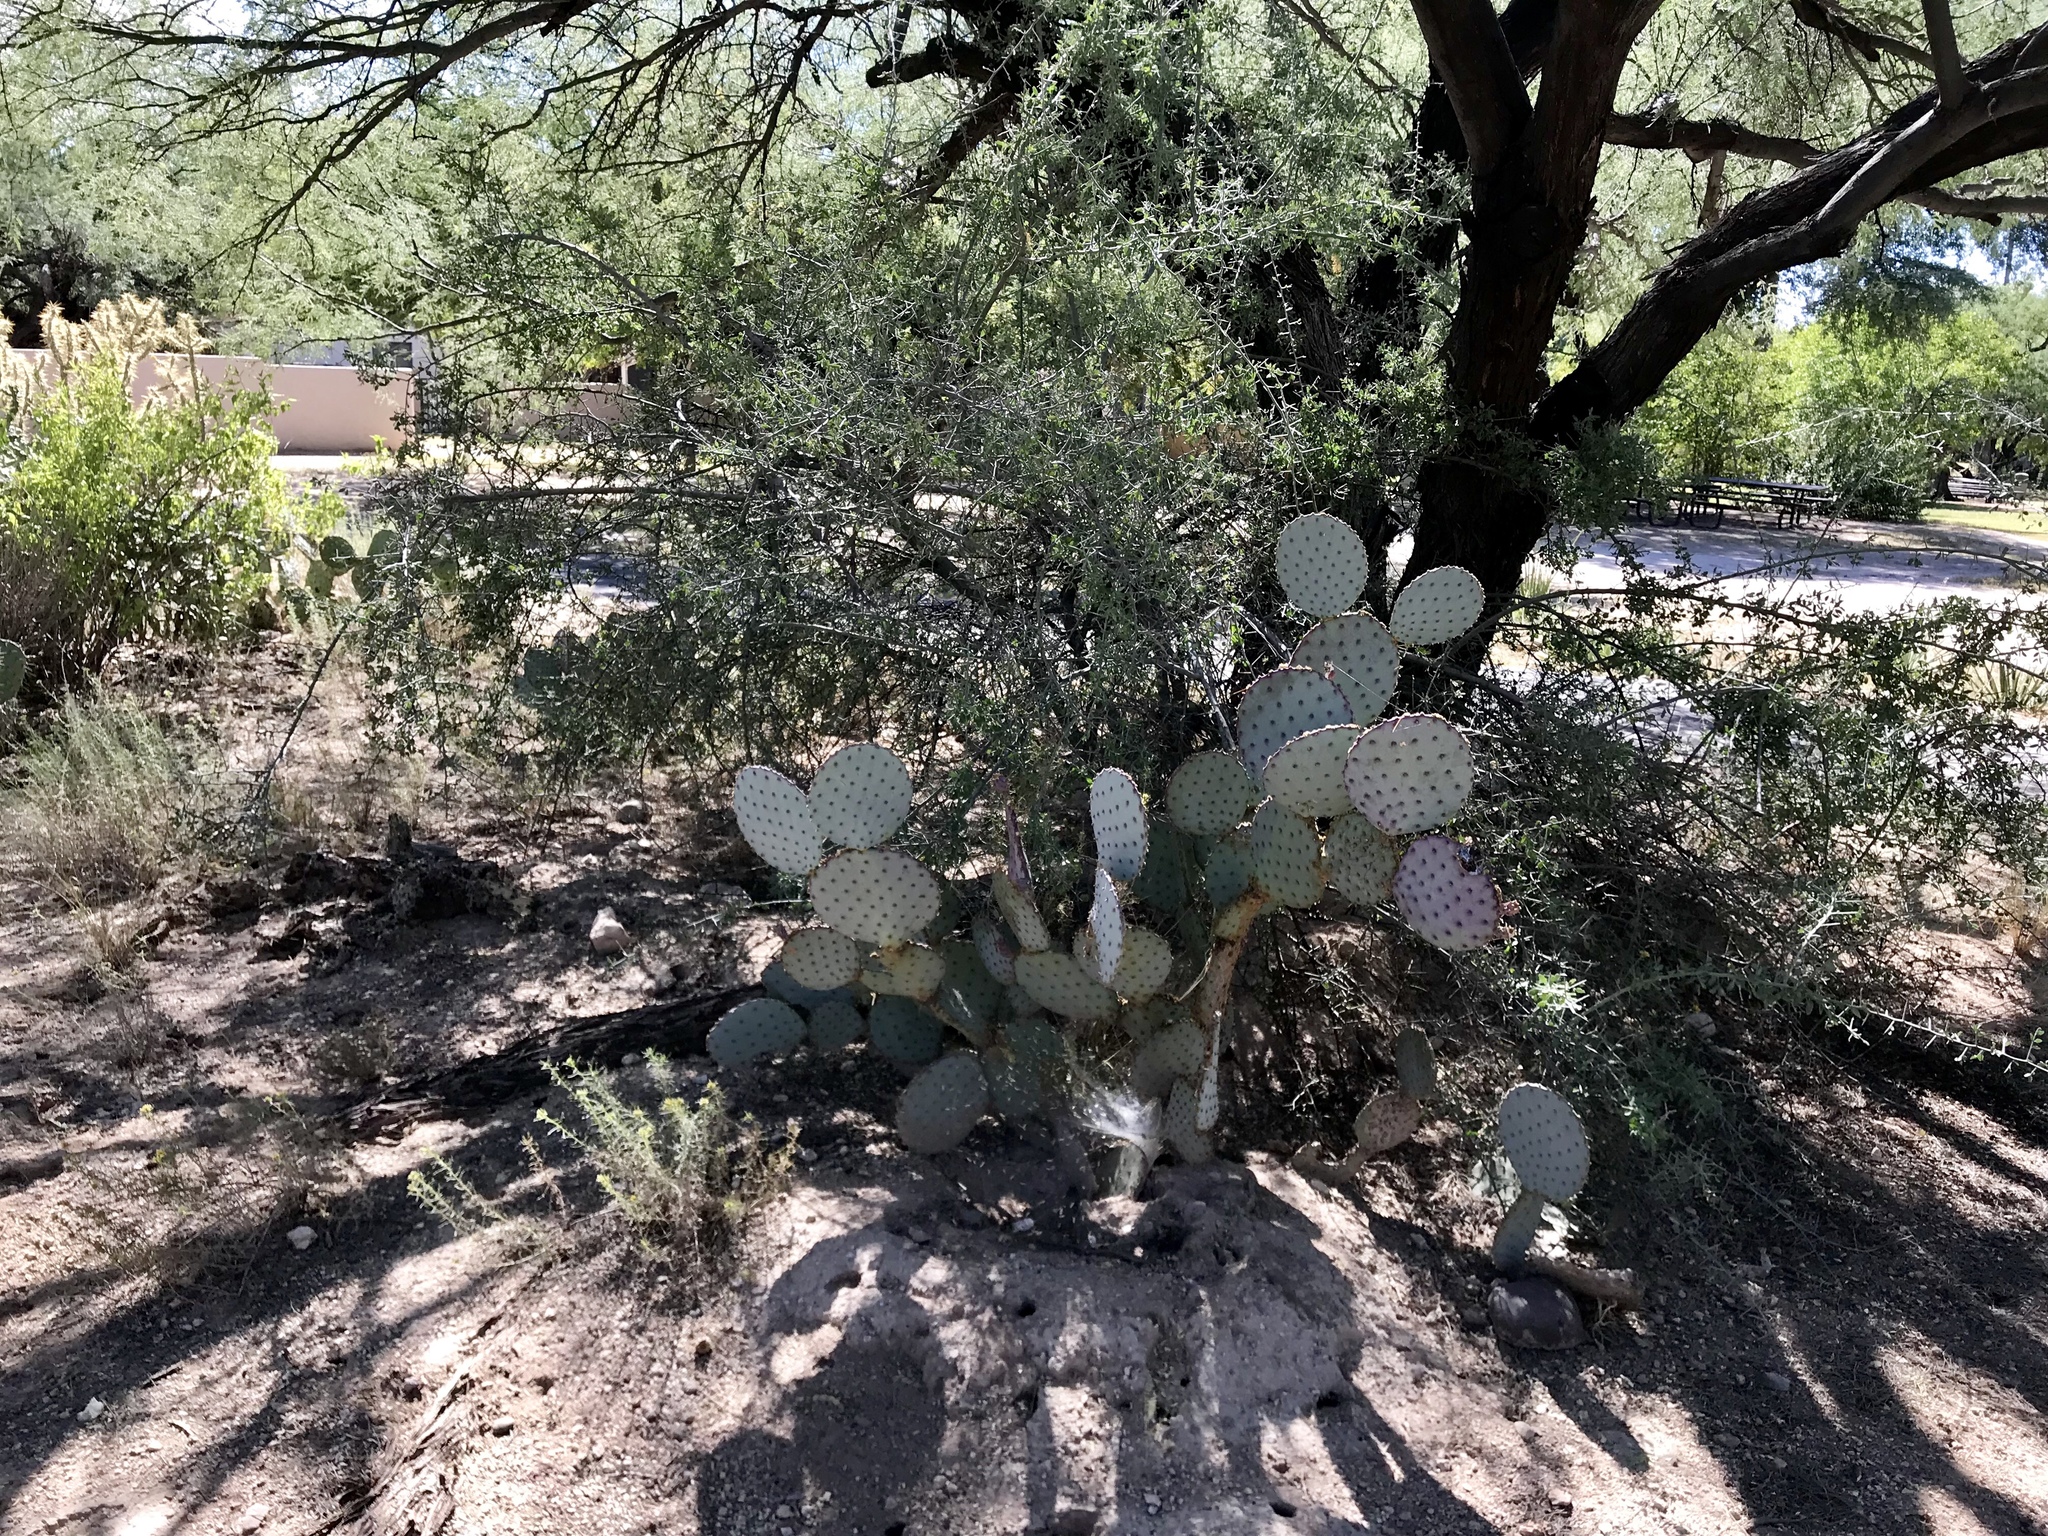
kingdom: Plantae
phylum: Tracheophyta
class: Magnoliopsida
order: Caryophyllales
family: Cactaceae
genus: Opuntia
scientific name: Opuntia gosseliniana
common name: Violet prickly-pear
